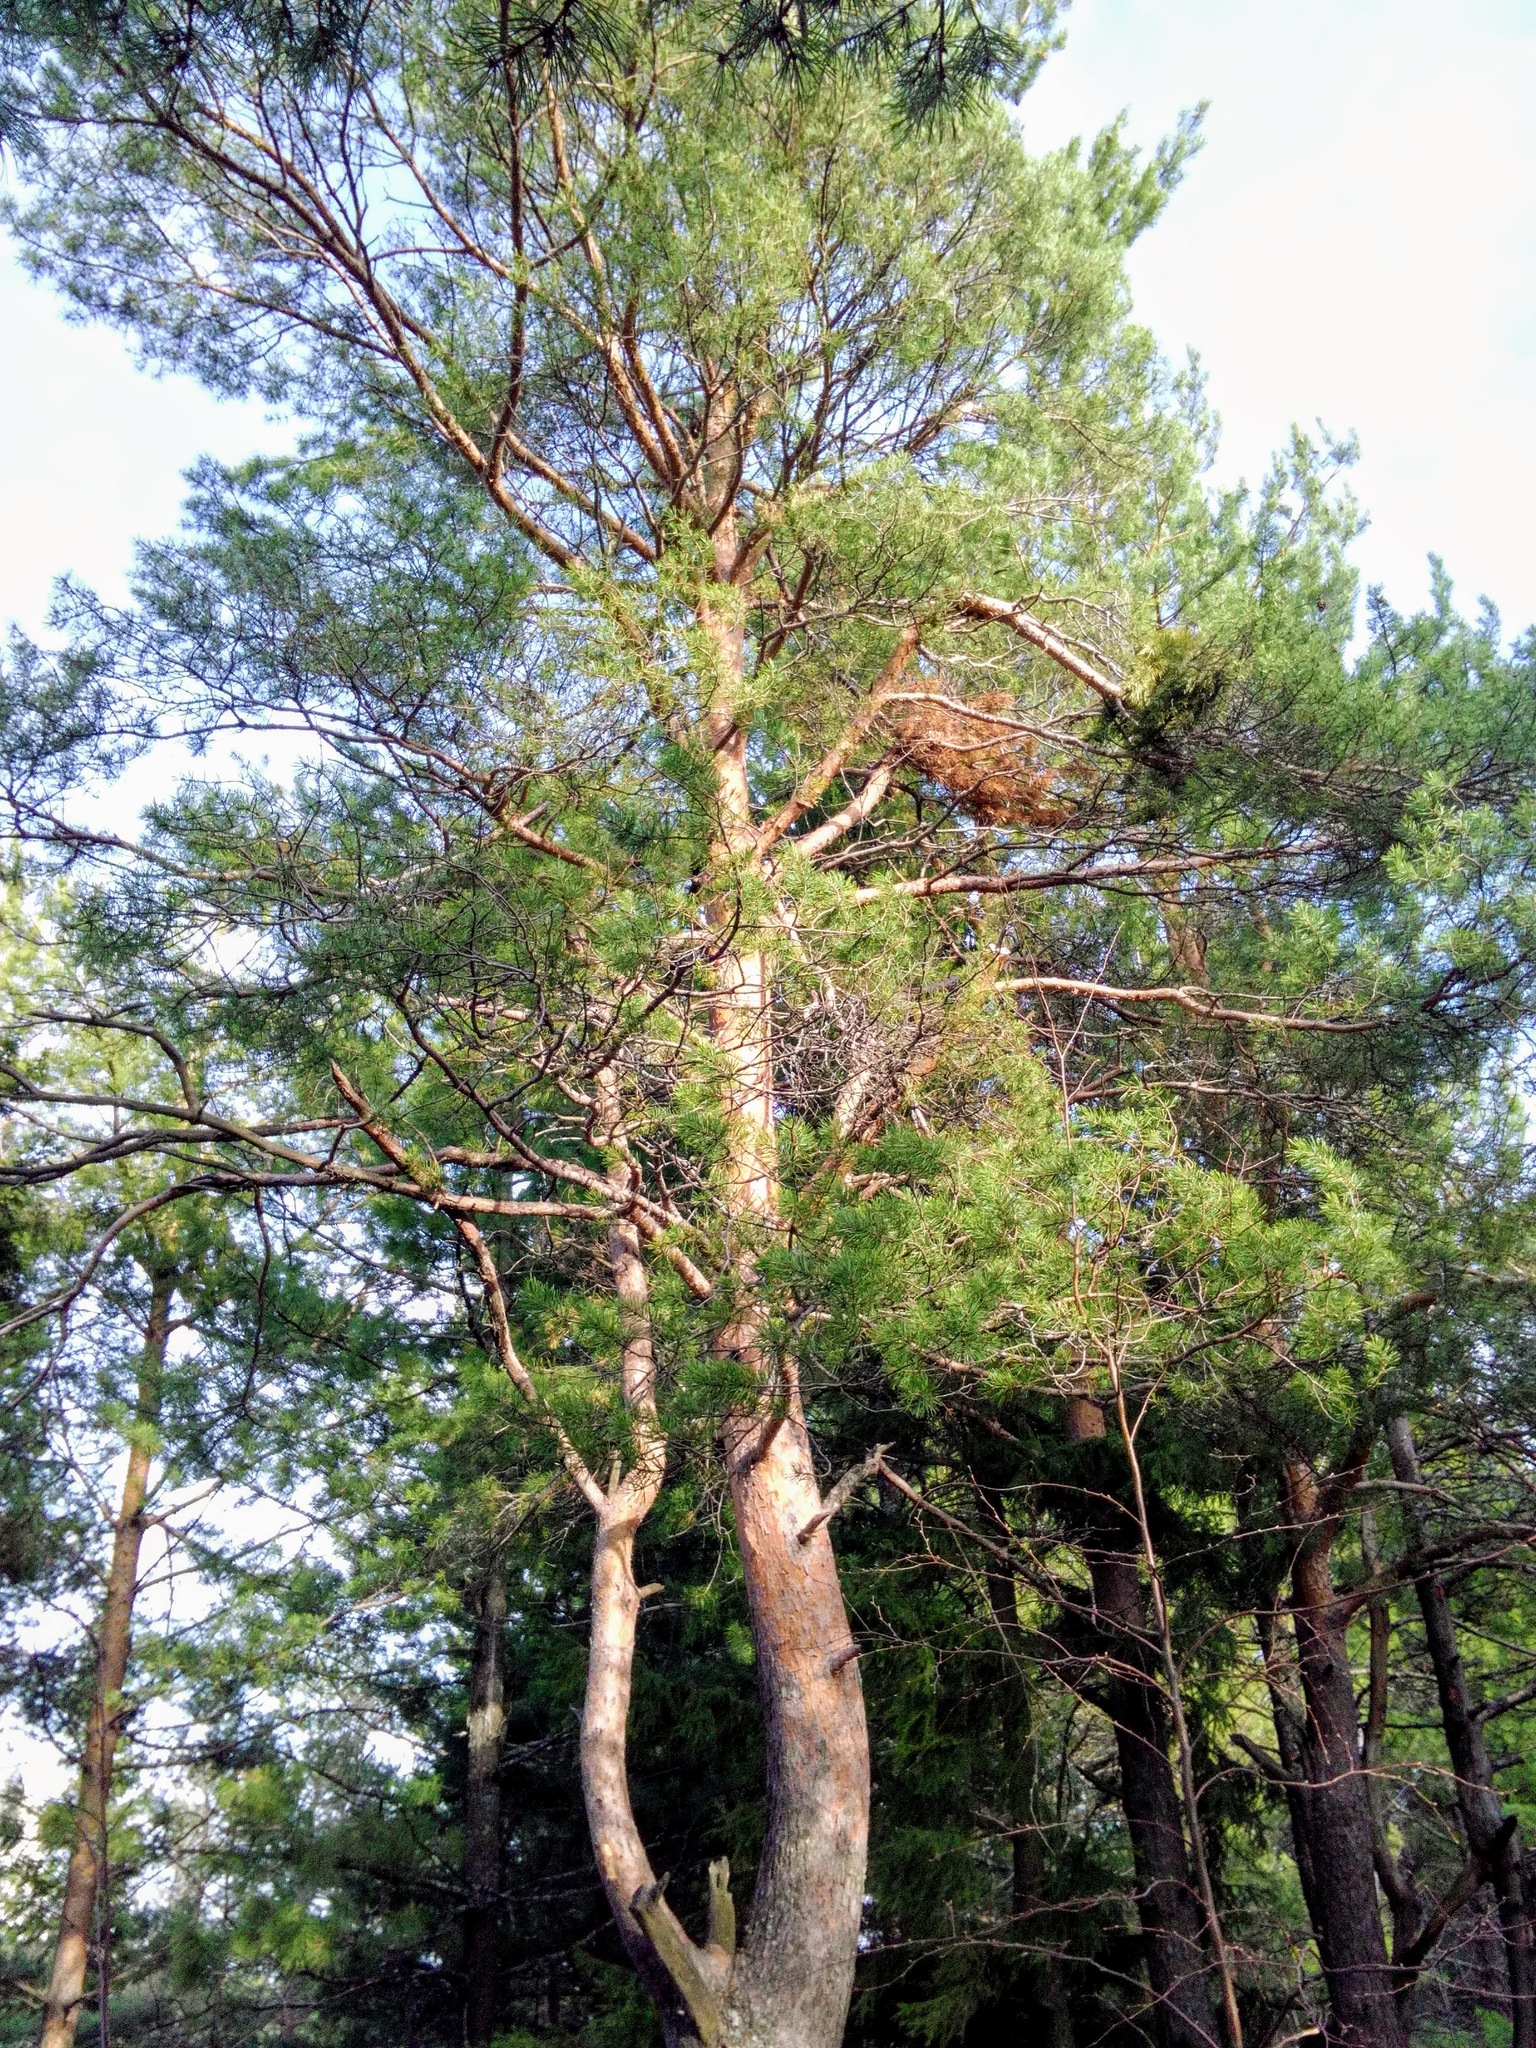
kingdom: Plantae
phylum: Tracheophyta
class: Pinopsida
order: Pinales
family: Pinaceae
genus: Pinus
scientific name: Pinus sylvestris
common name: Scots pine
